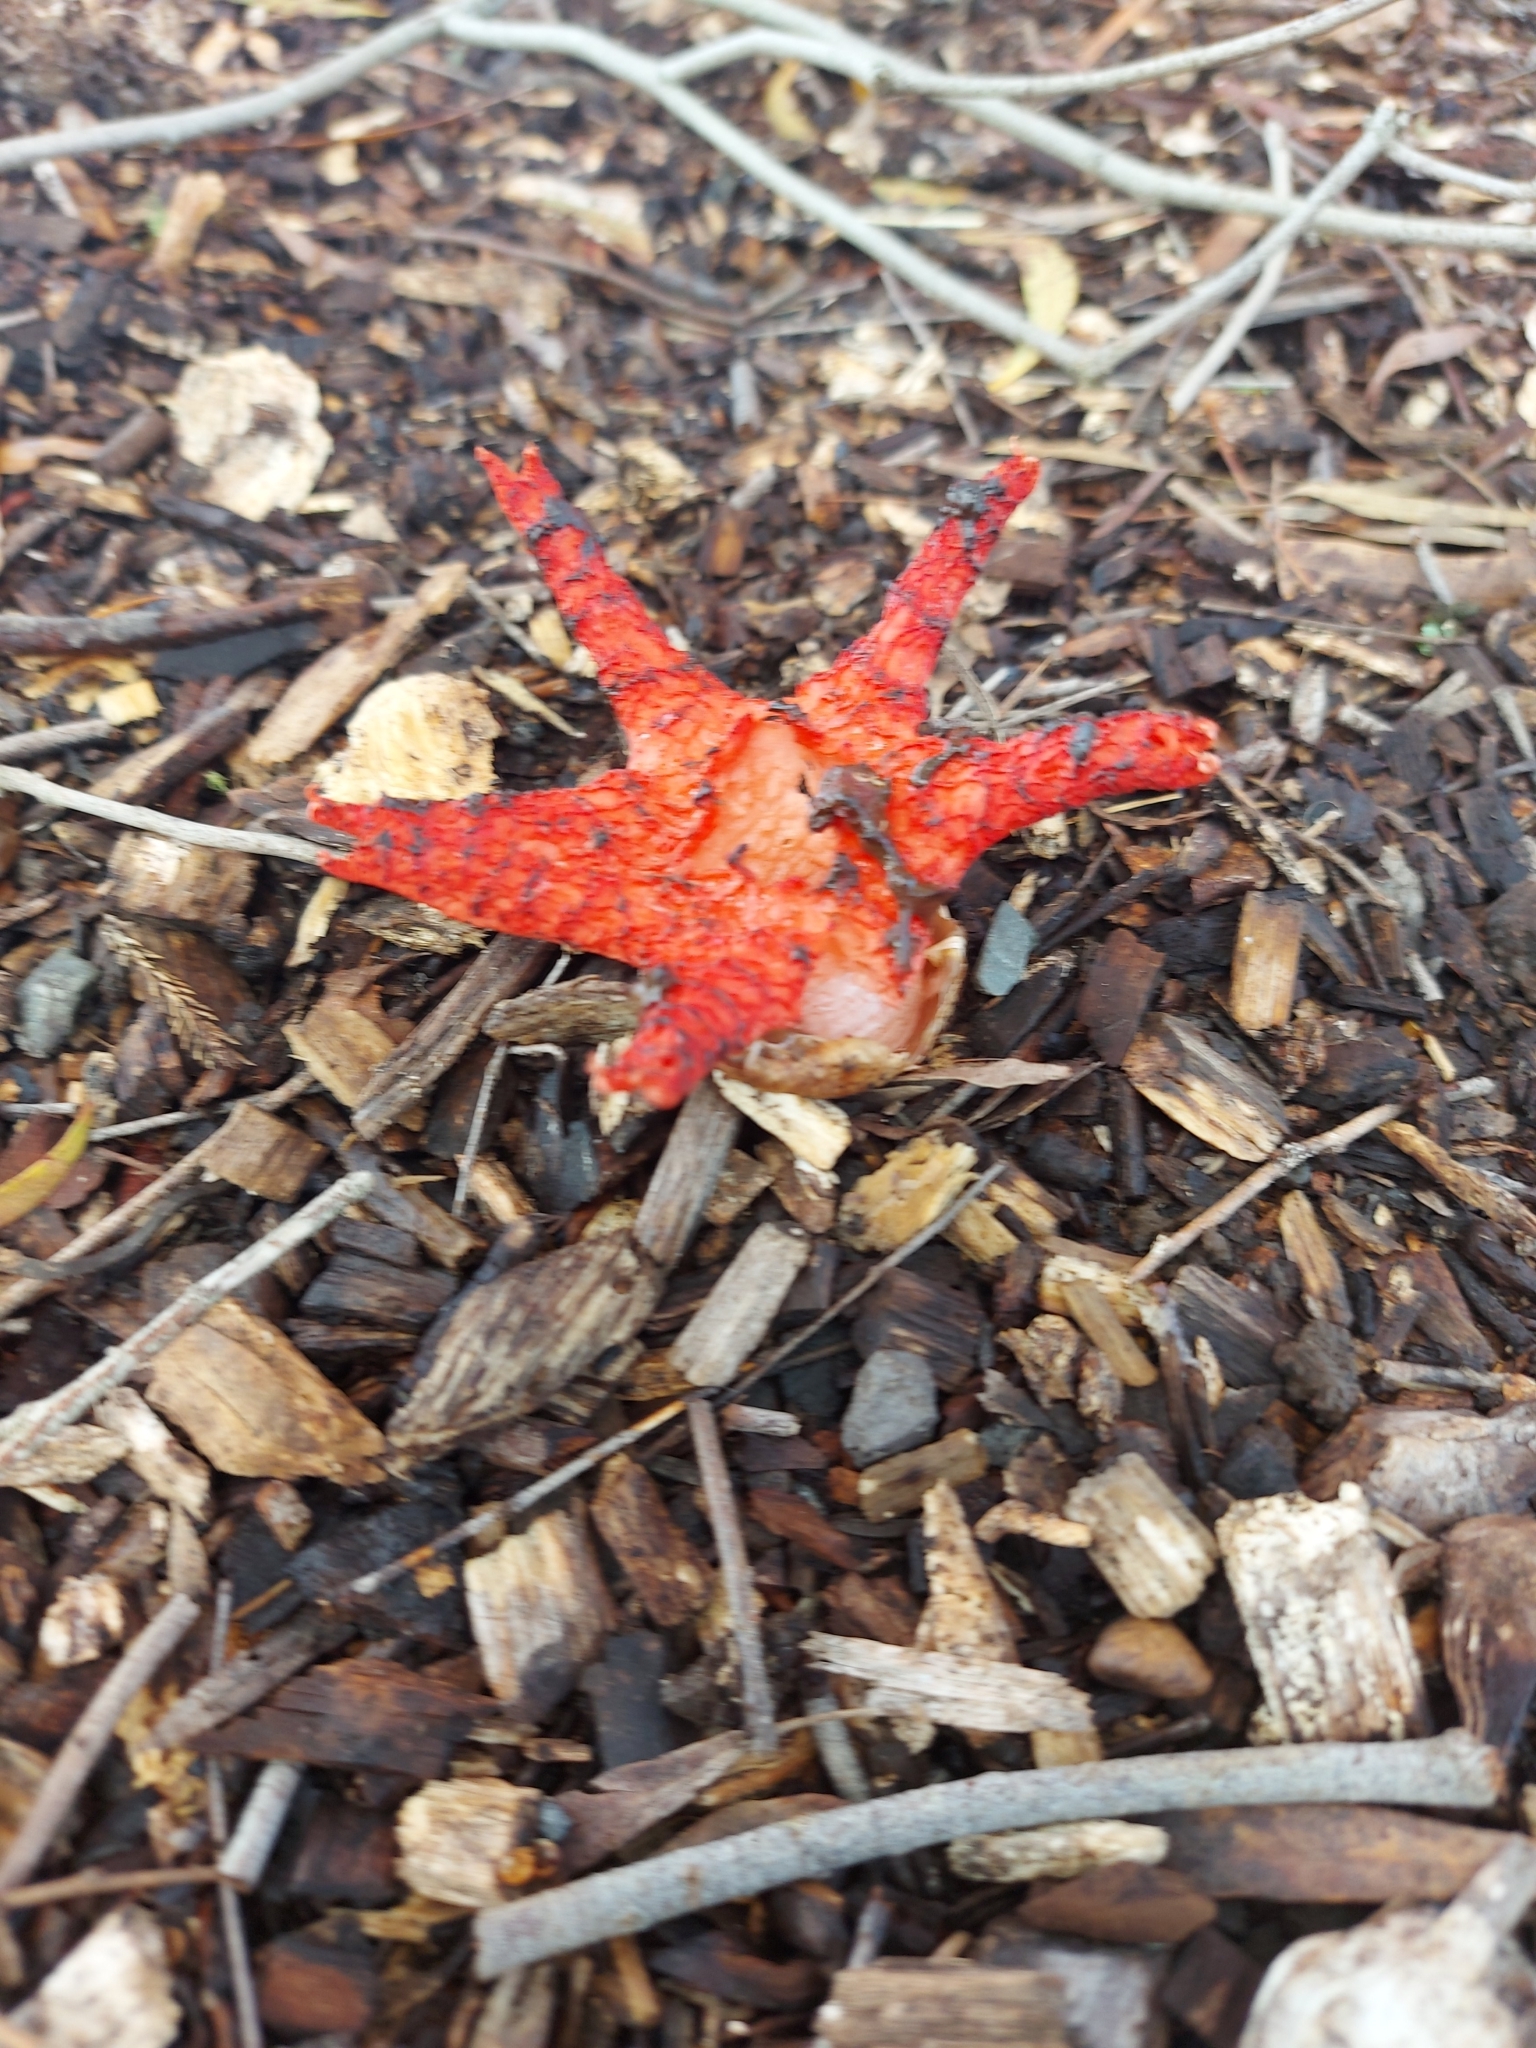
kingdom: Fungi
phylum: Basidiomycota
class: Agaricomycetes
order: Phallales
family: Phallaceae
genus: Clathrus
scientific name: Clathrus archeri
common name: Devil's fingers
